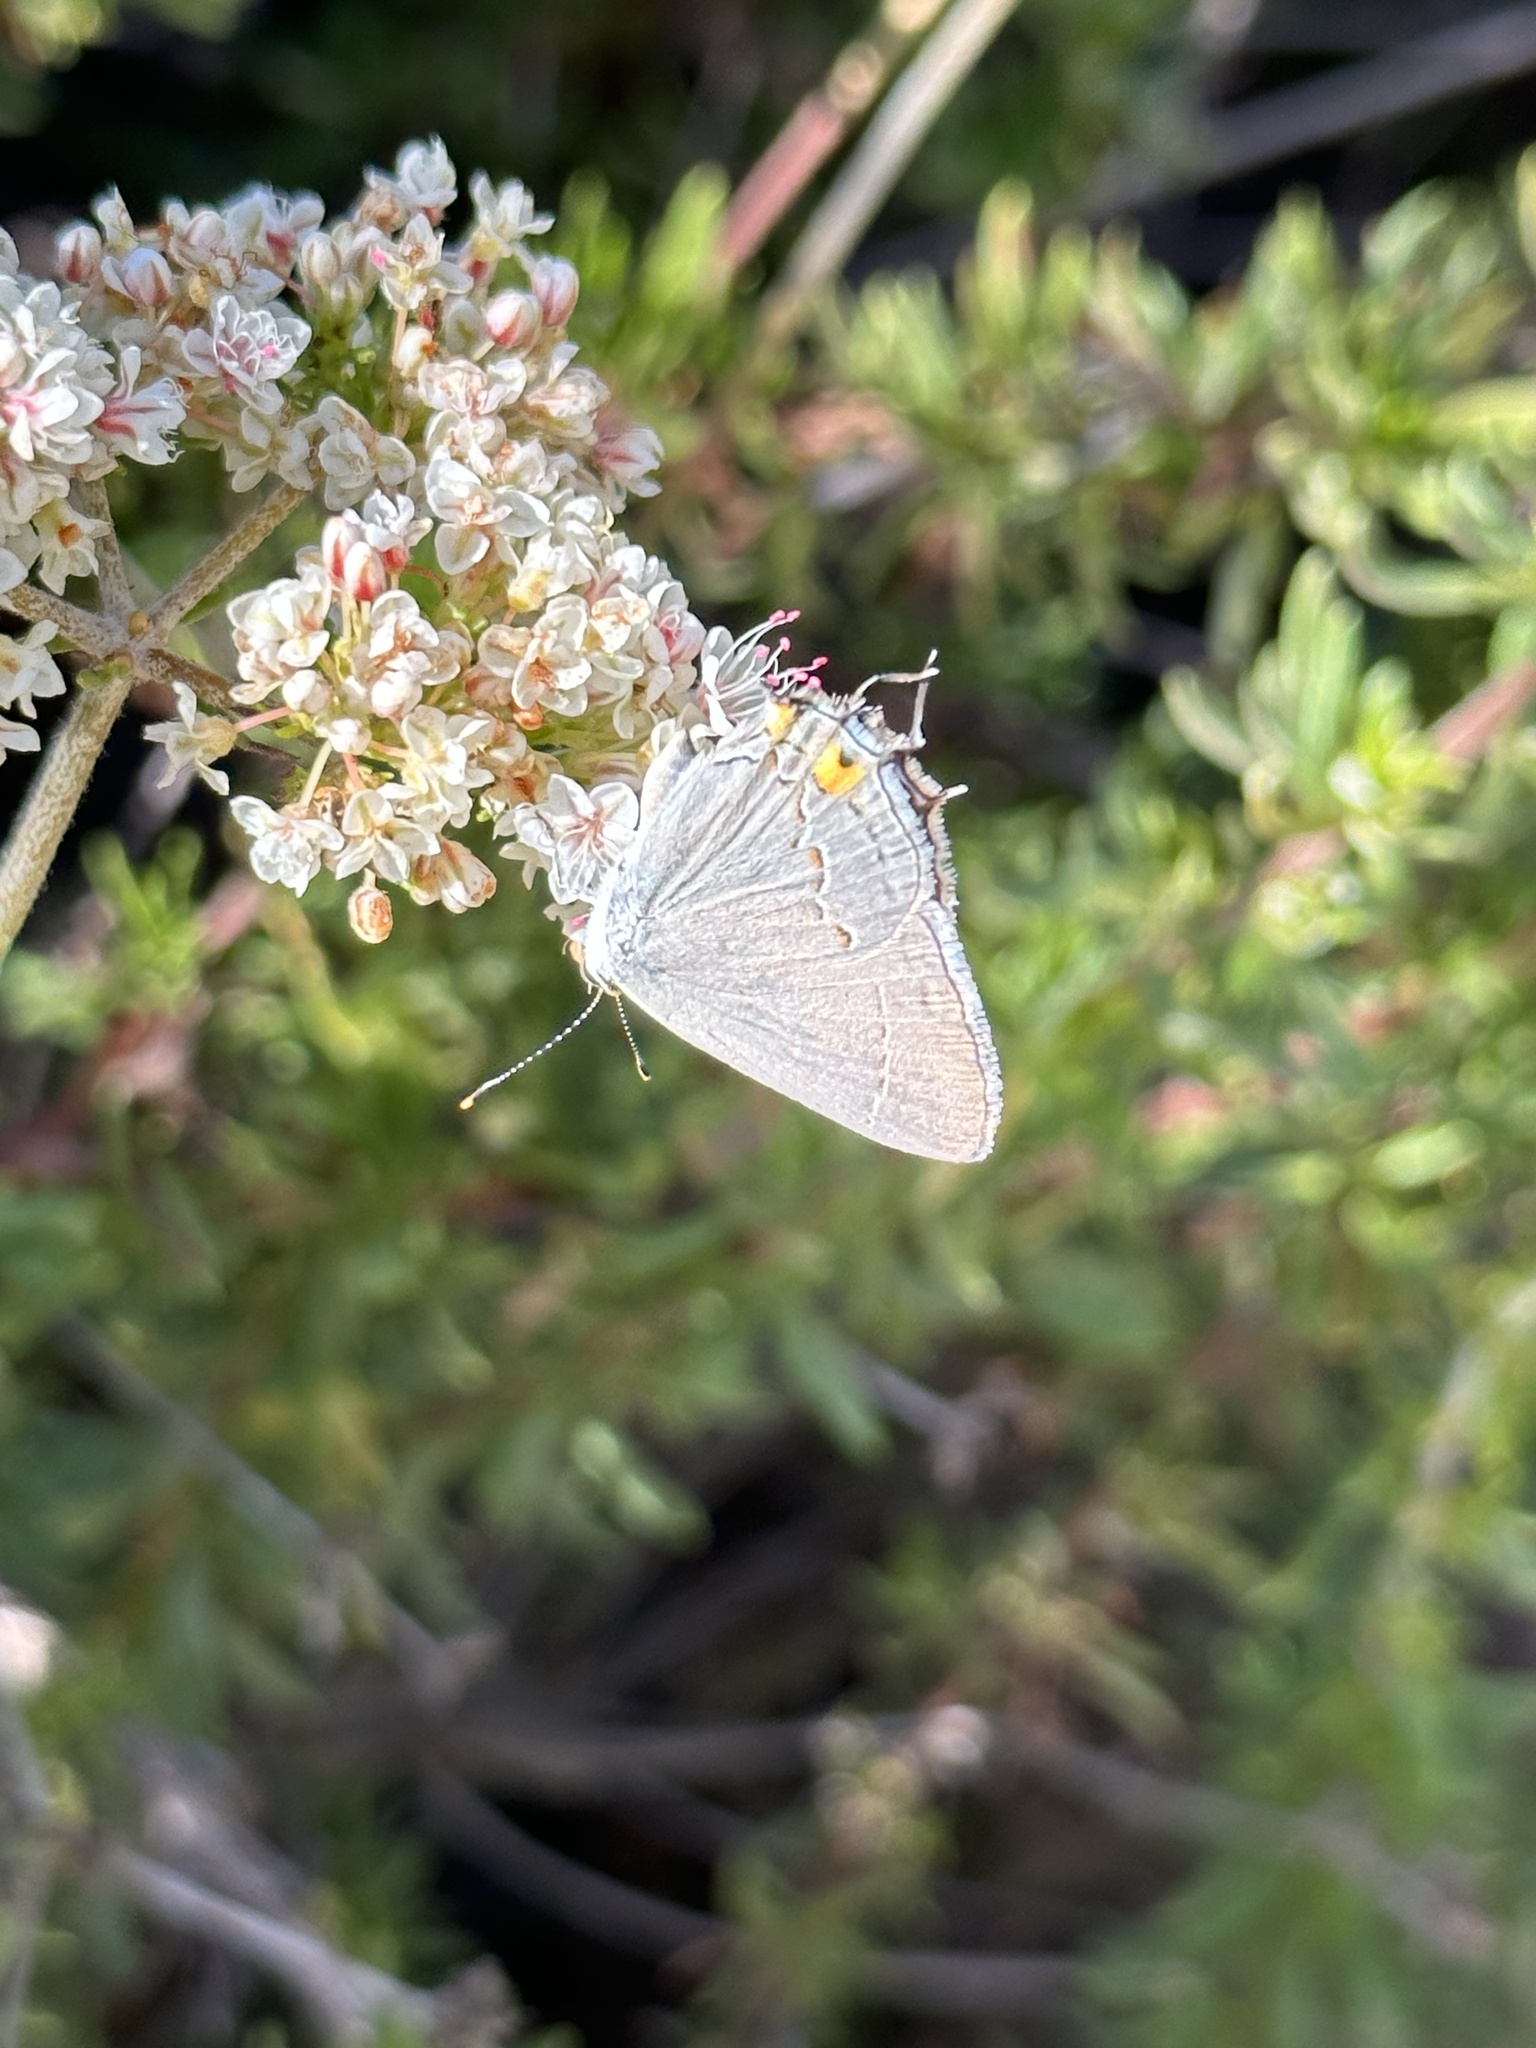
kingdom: Animalia
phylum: Arthropoda
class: Insecta
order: Lepidoptera
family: Lycaenidae
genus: Strymon
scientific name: Strymon melinus
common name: Gray hairstreak
